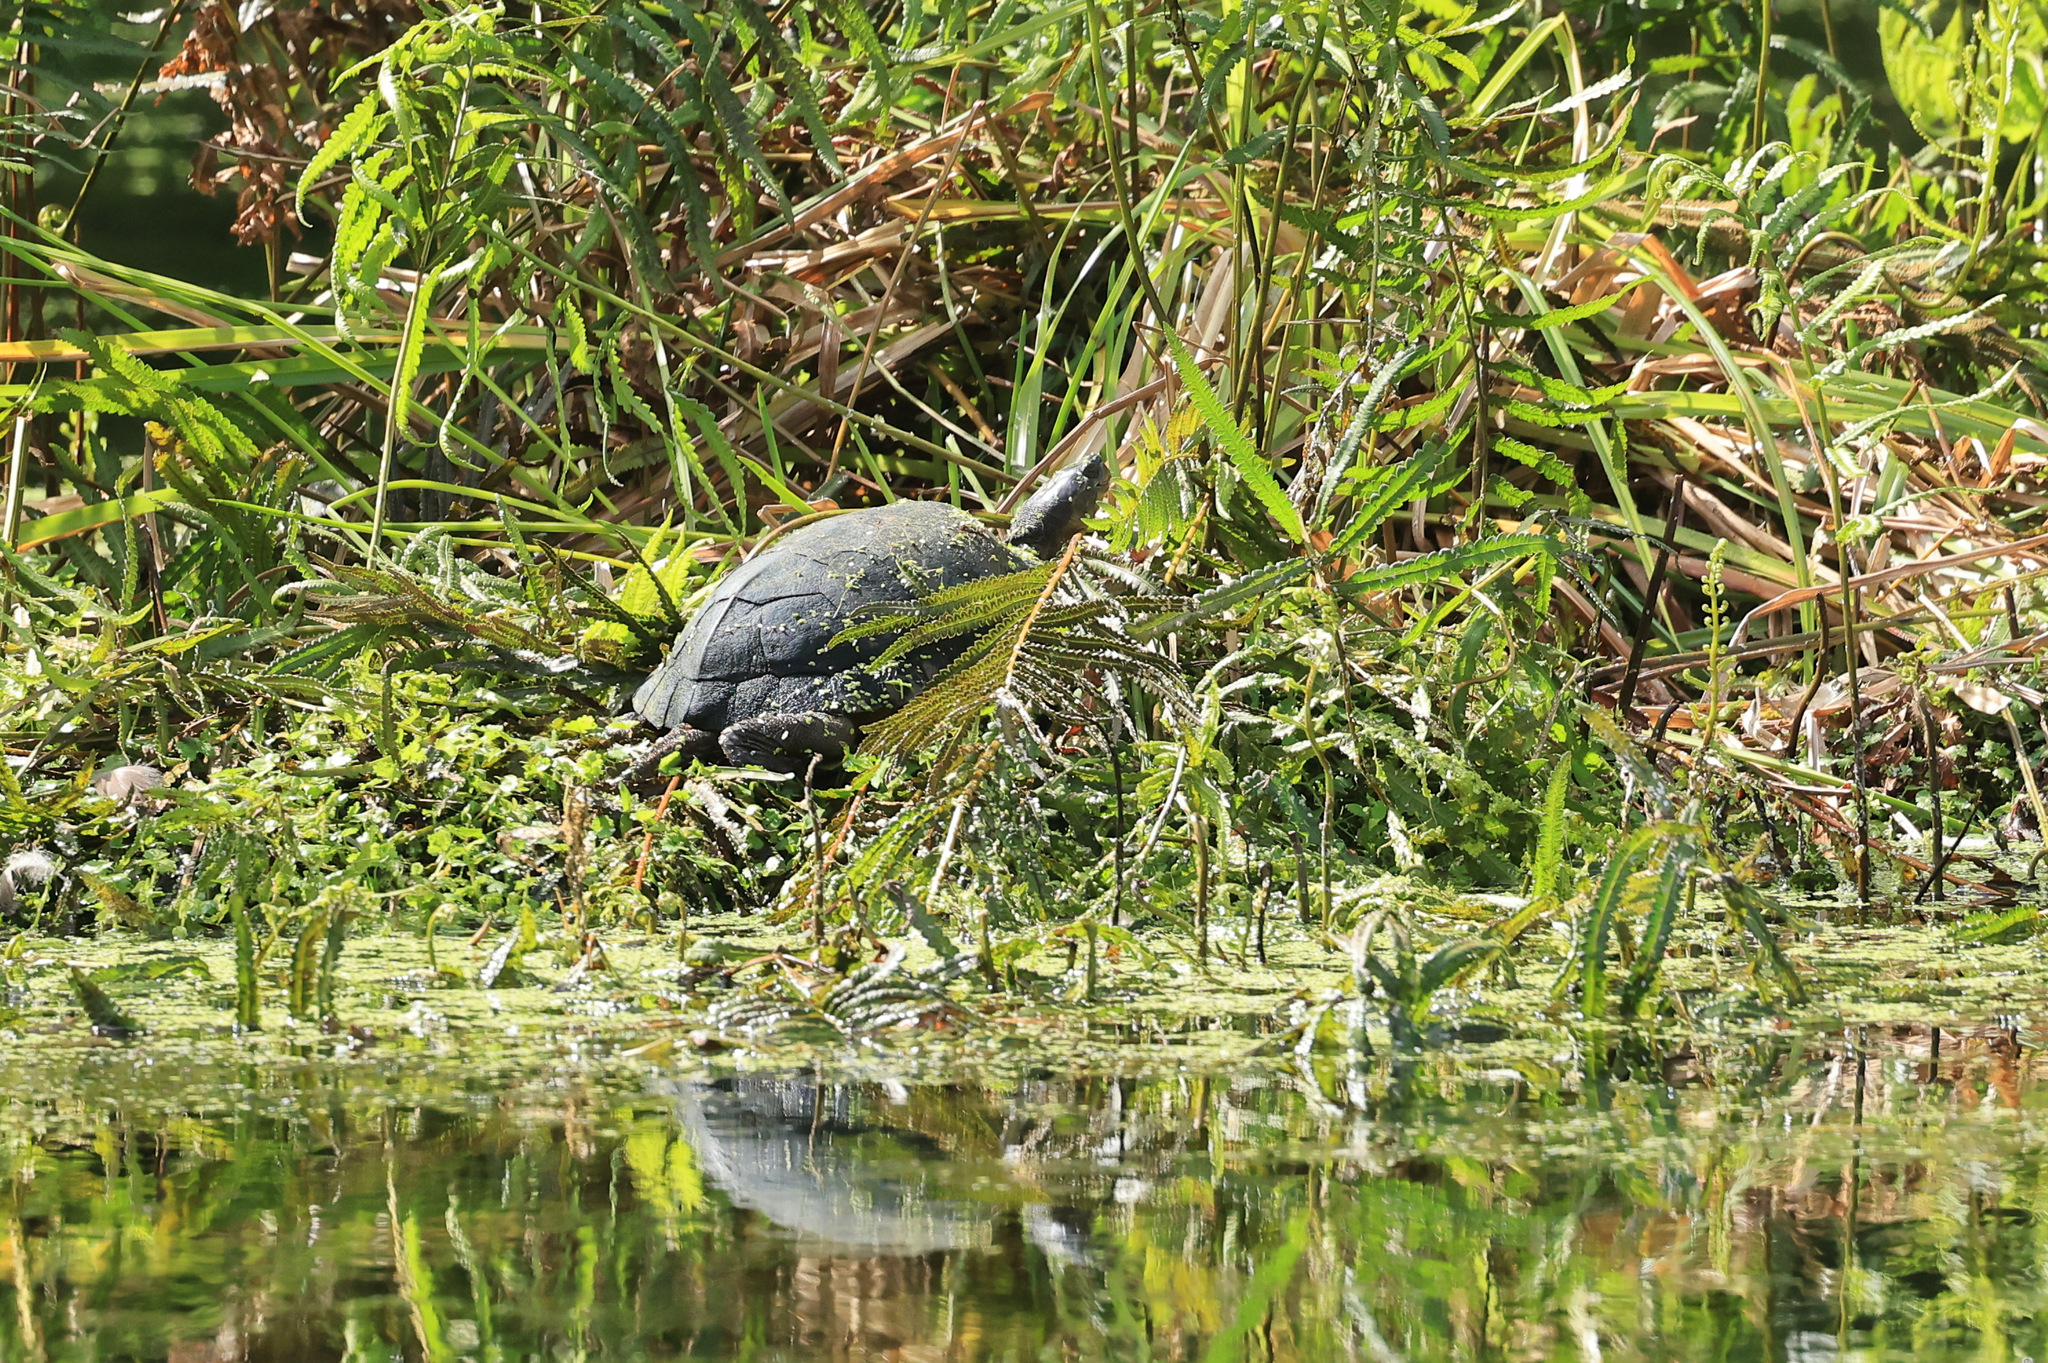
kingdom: Animalia
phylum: Chordata
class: Testudines
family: Geoemydidae
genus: Mauremys
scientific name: Mauremys mutica
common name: Yellow pond turtle
